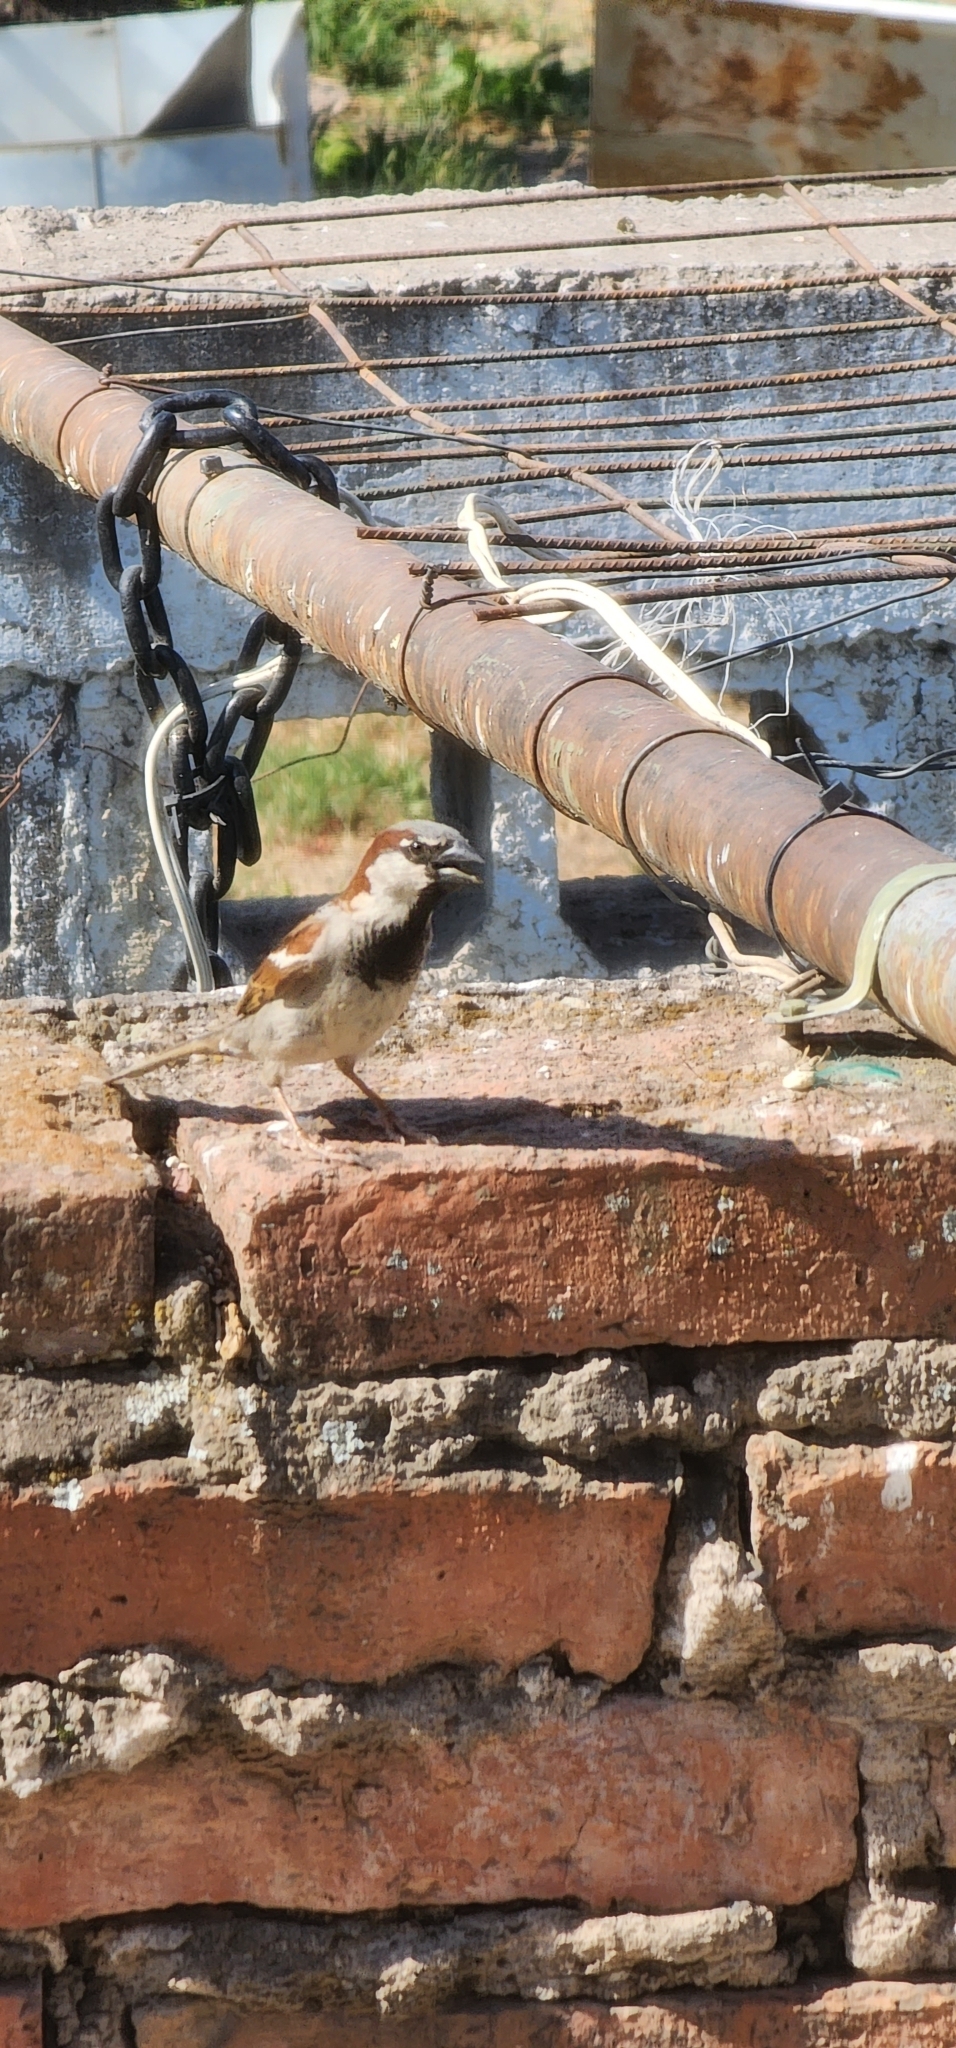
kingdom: Animalia
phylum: Chordata
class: Aves
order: Passeriformes
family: Passeridae
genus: Passer
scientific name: Passer domesticus
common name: House sparrow
